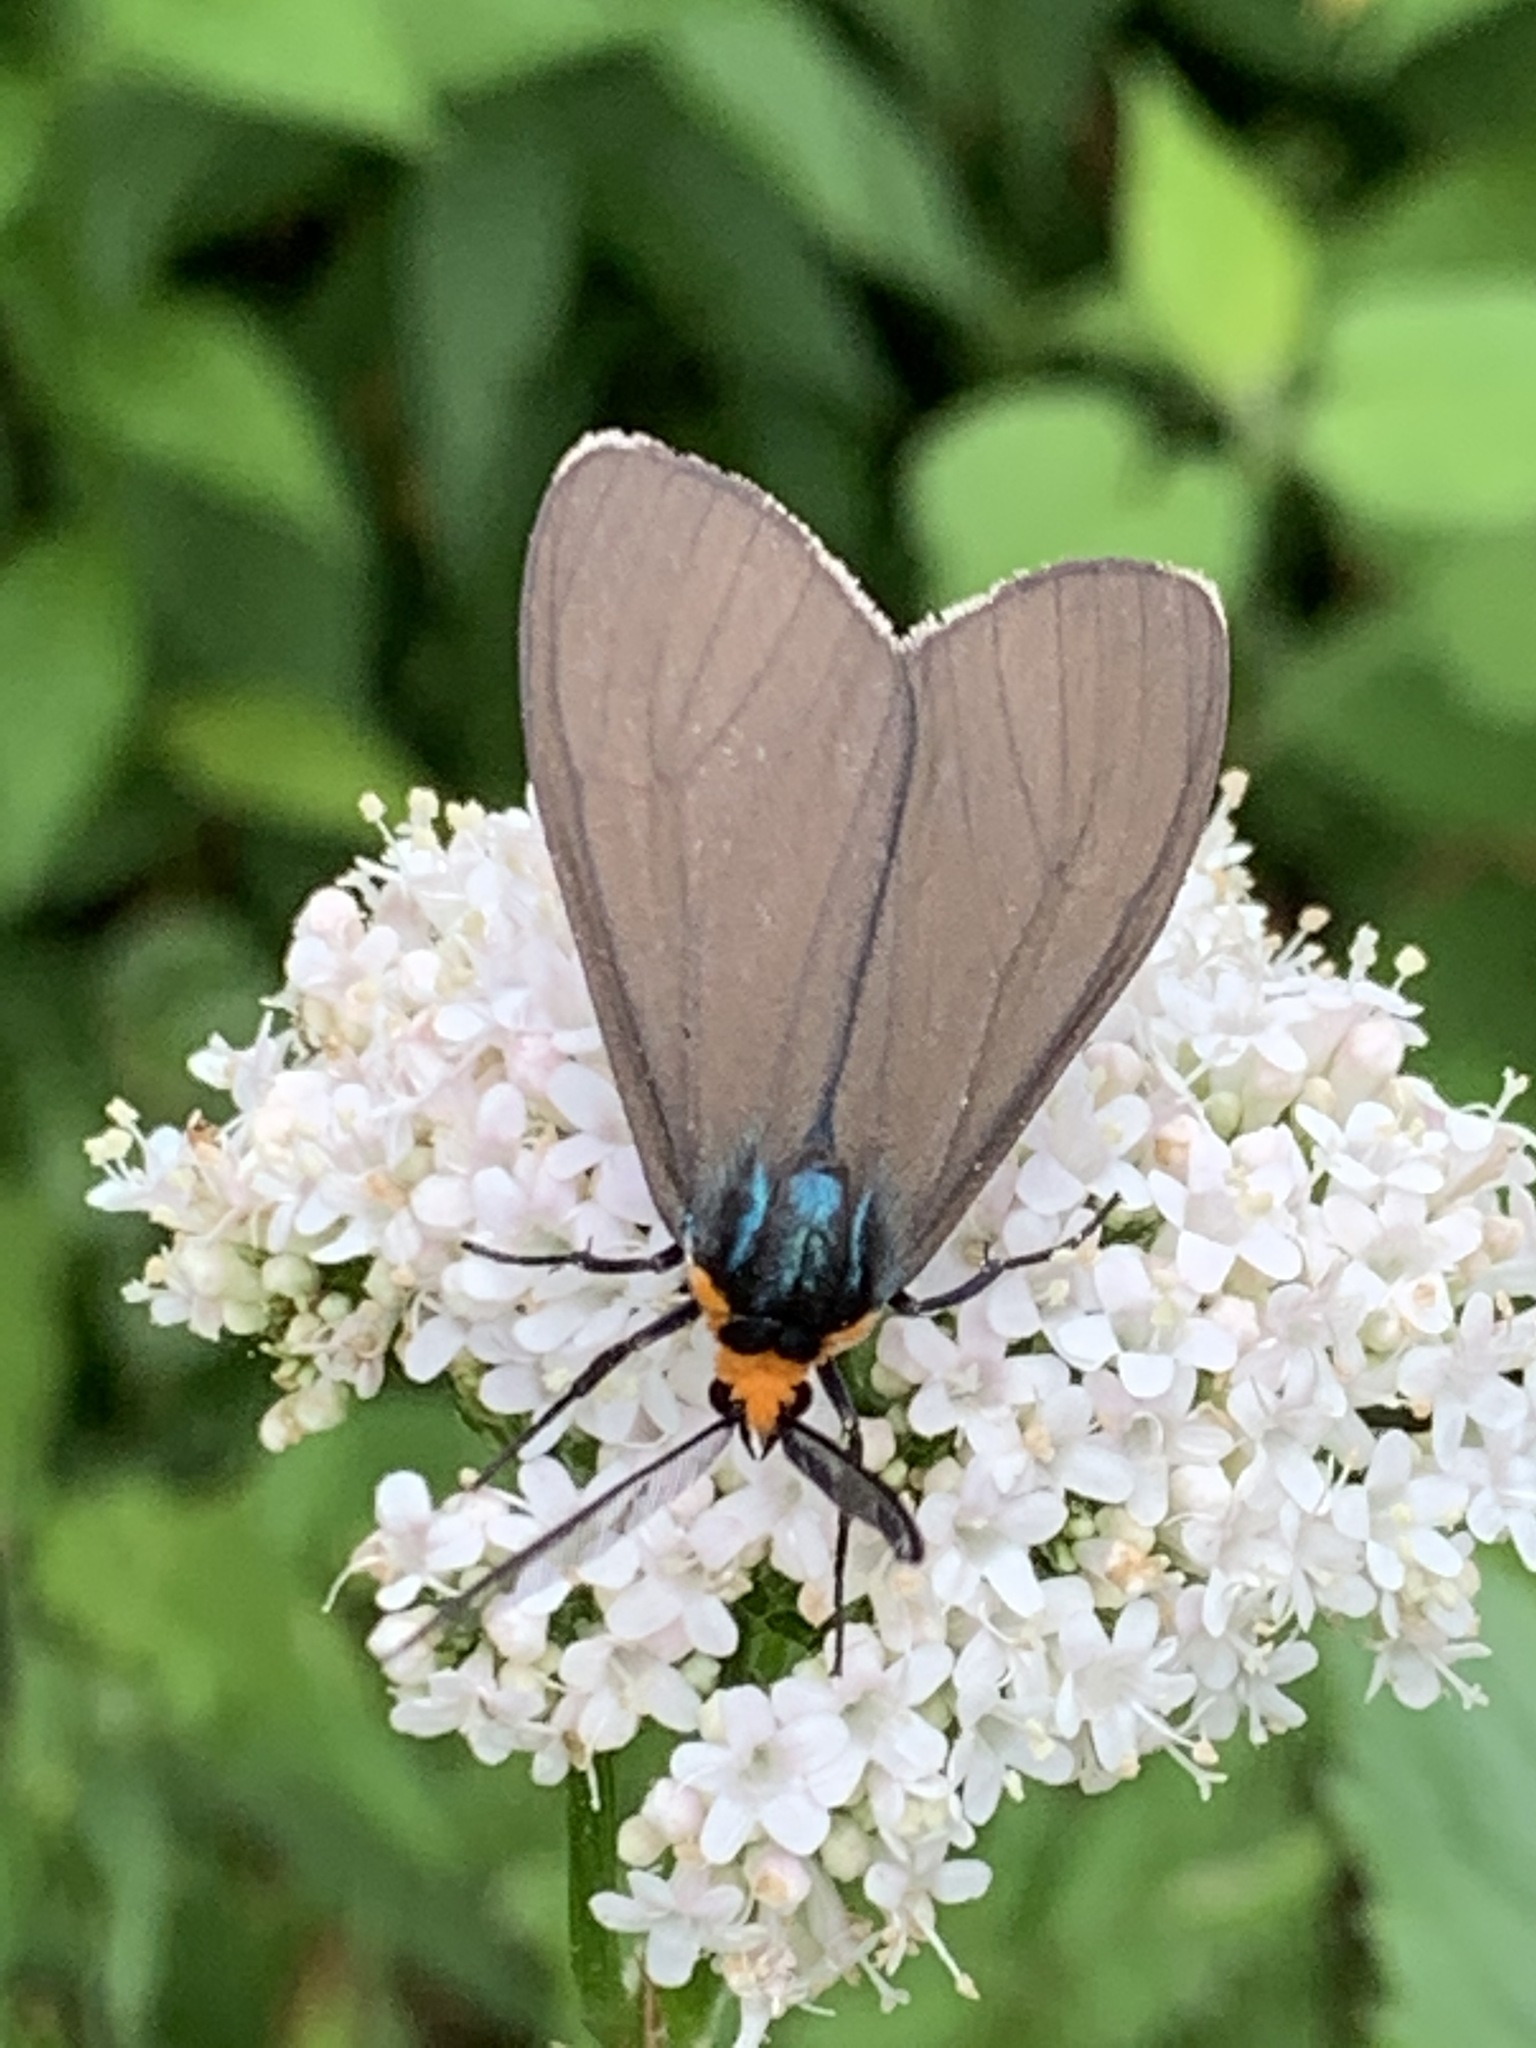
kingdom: Animalia
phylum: Arthropoda
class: Insecta
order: Lepidoptera
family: Erebidae
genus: Ctenucha
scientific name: Ctenucha virginica
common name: Virginia ctenucha moth
